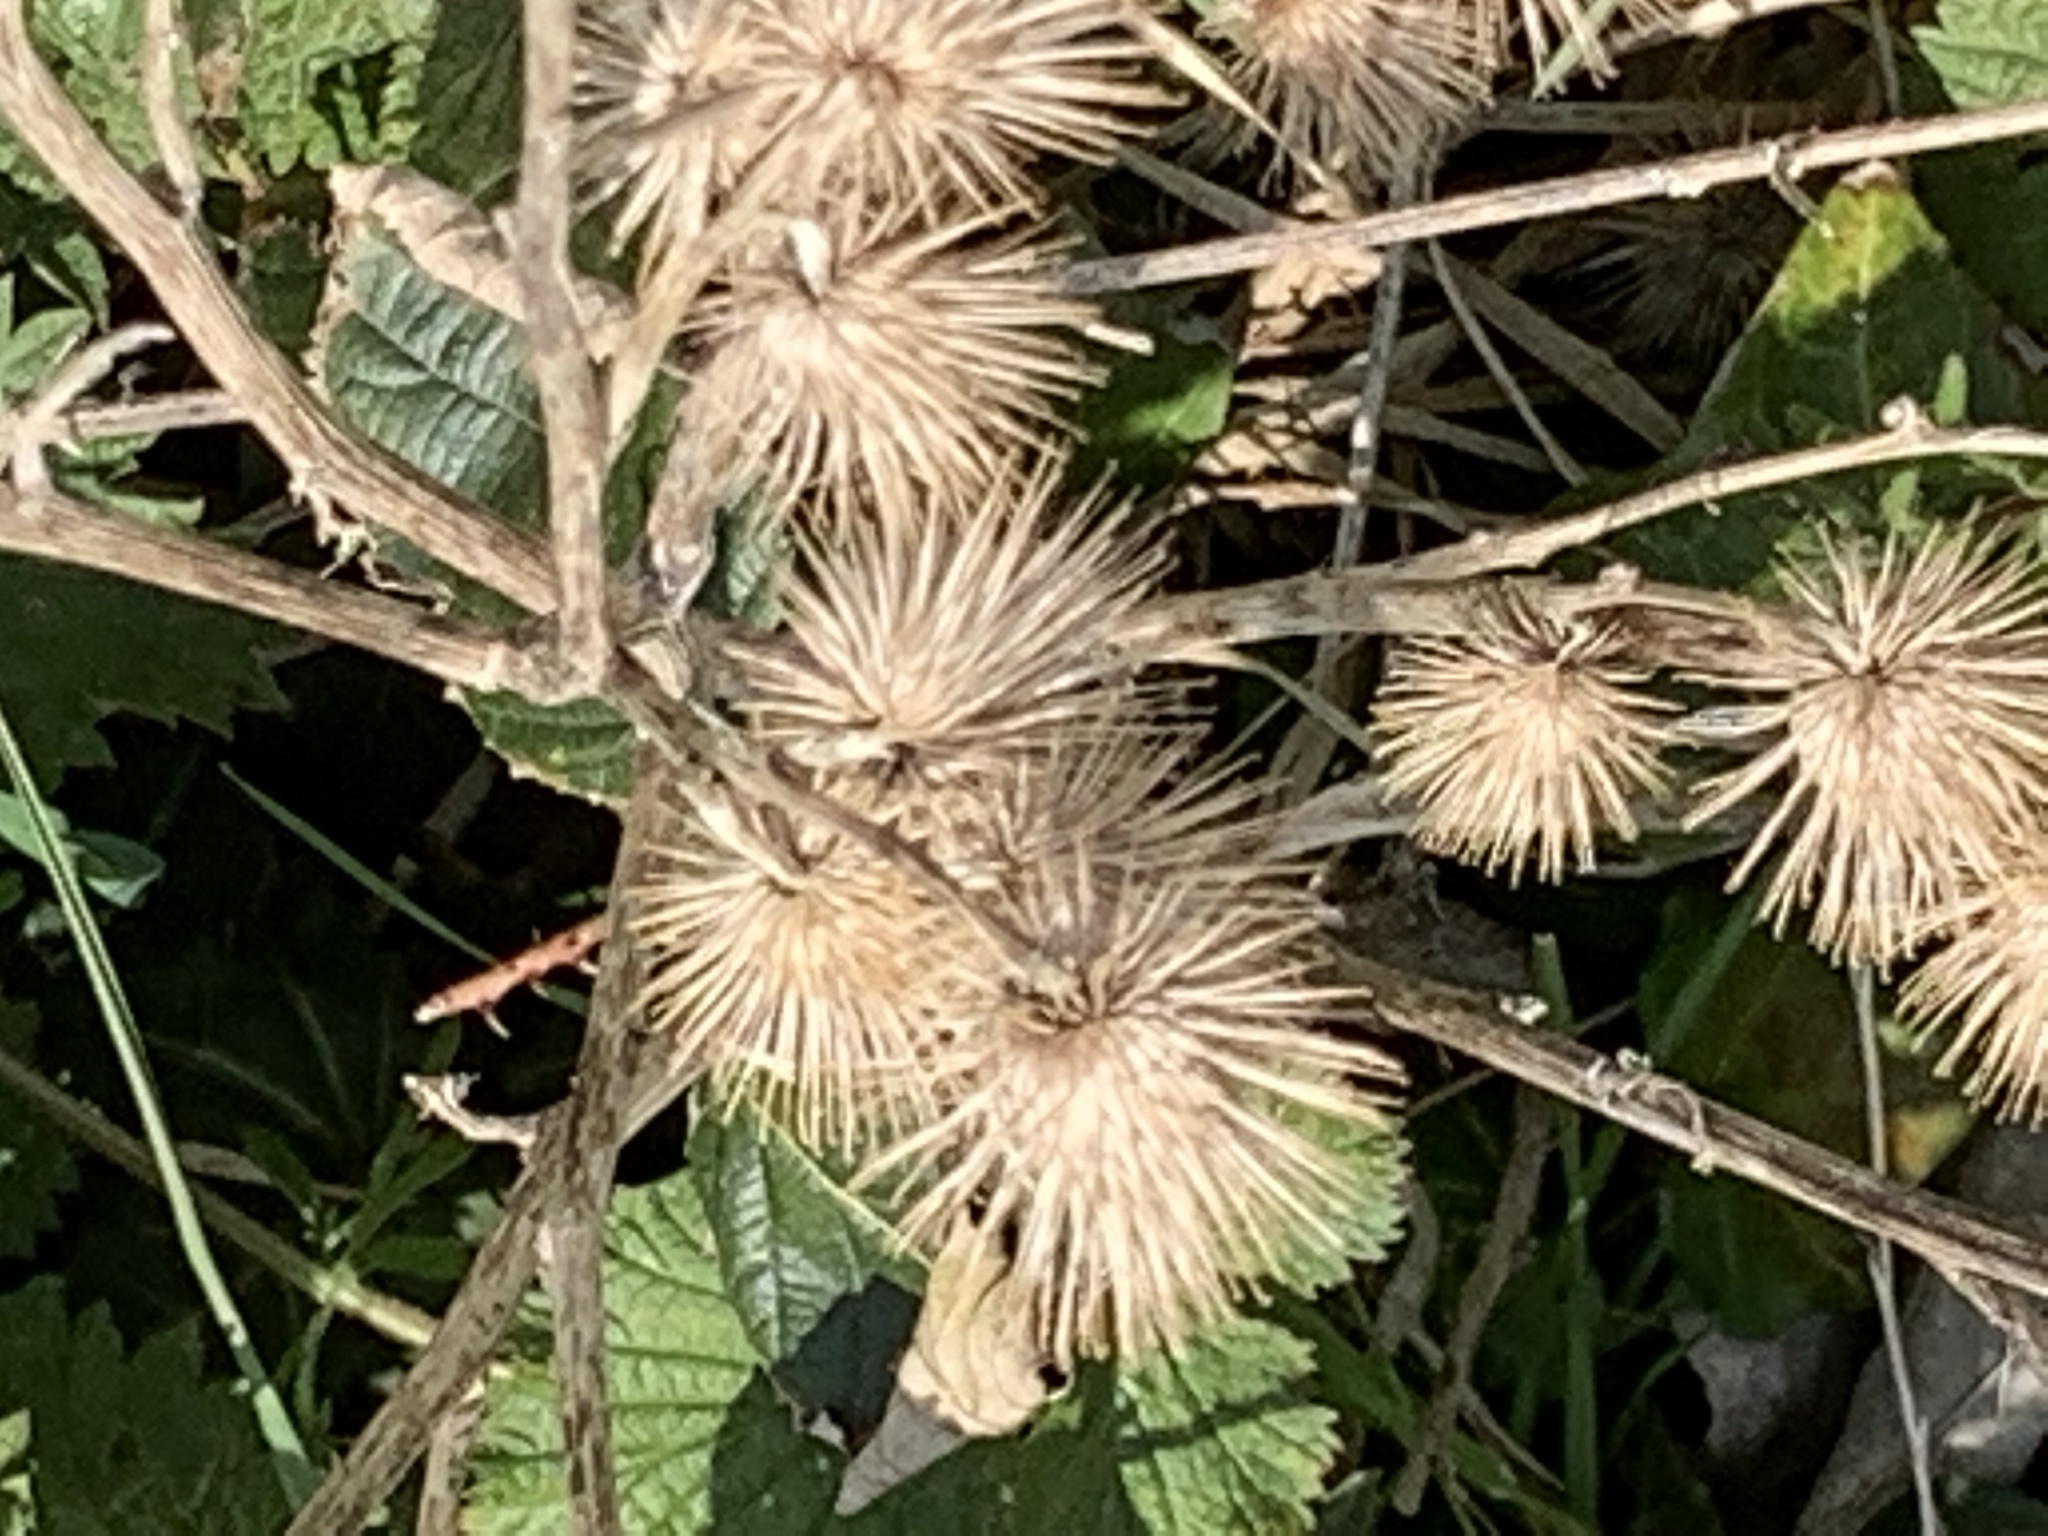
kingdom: Plantae
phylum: Tracheophyta
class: Magnoliopsida
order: Asterales
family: Asteraceae
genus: Arctium
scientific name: Arctium minus
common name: Lesser burdock
